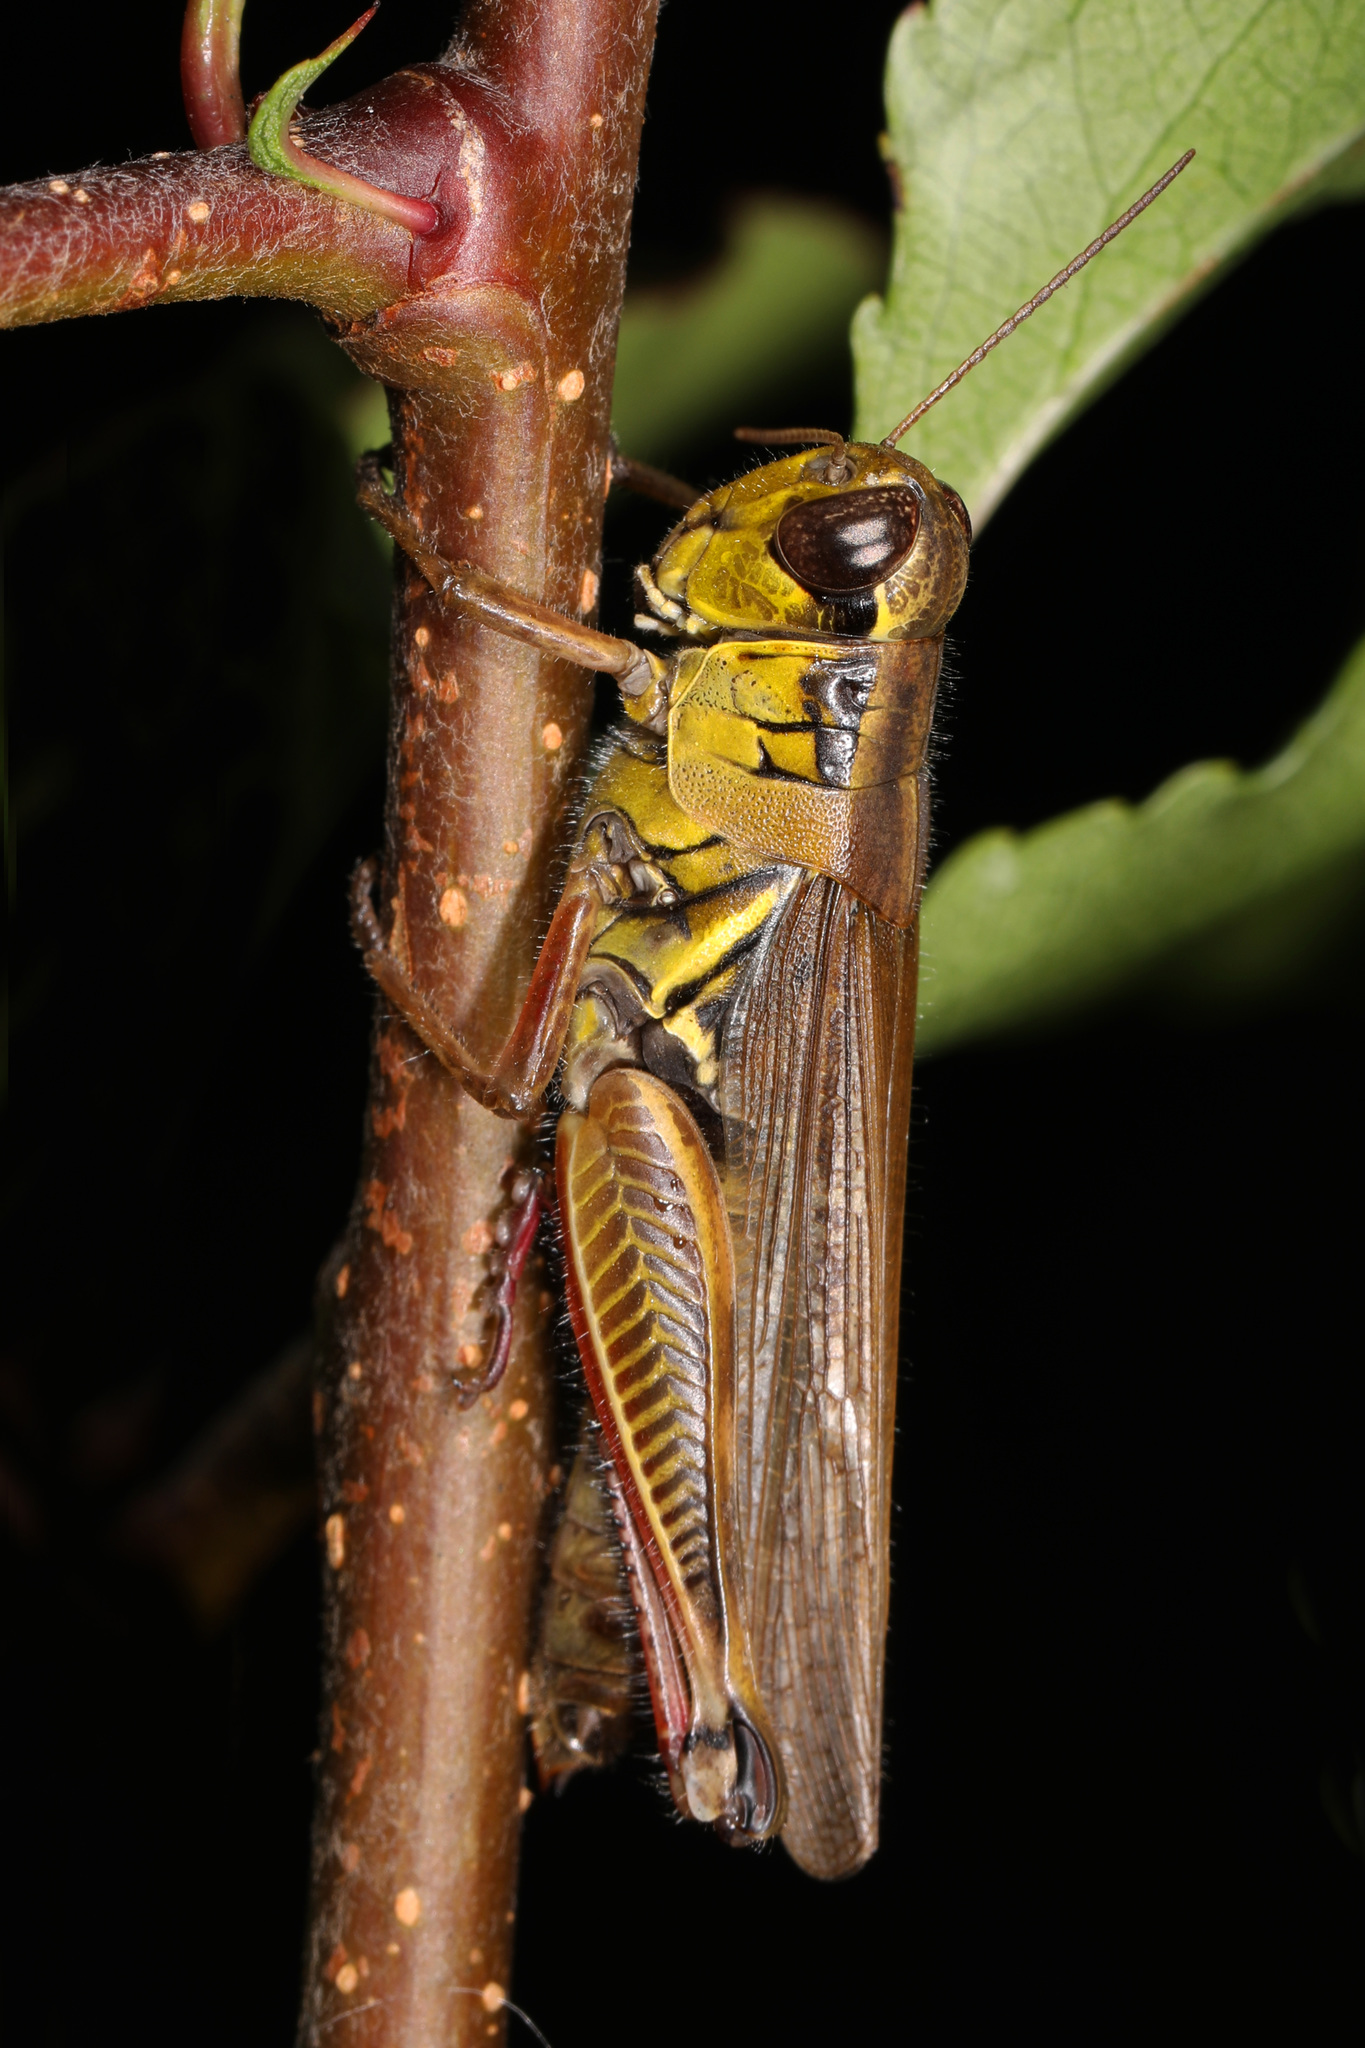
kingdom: Animalia
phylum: Arthropoda
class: Insecta
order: Orthoptera
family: Acrididae
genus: Melanoplus
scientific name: Melanoplus femurrubrum
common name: Red-legged grasshopper
